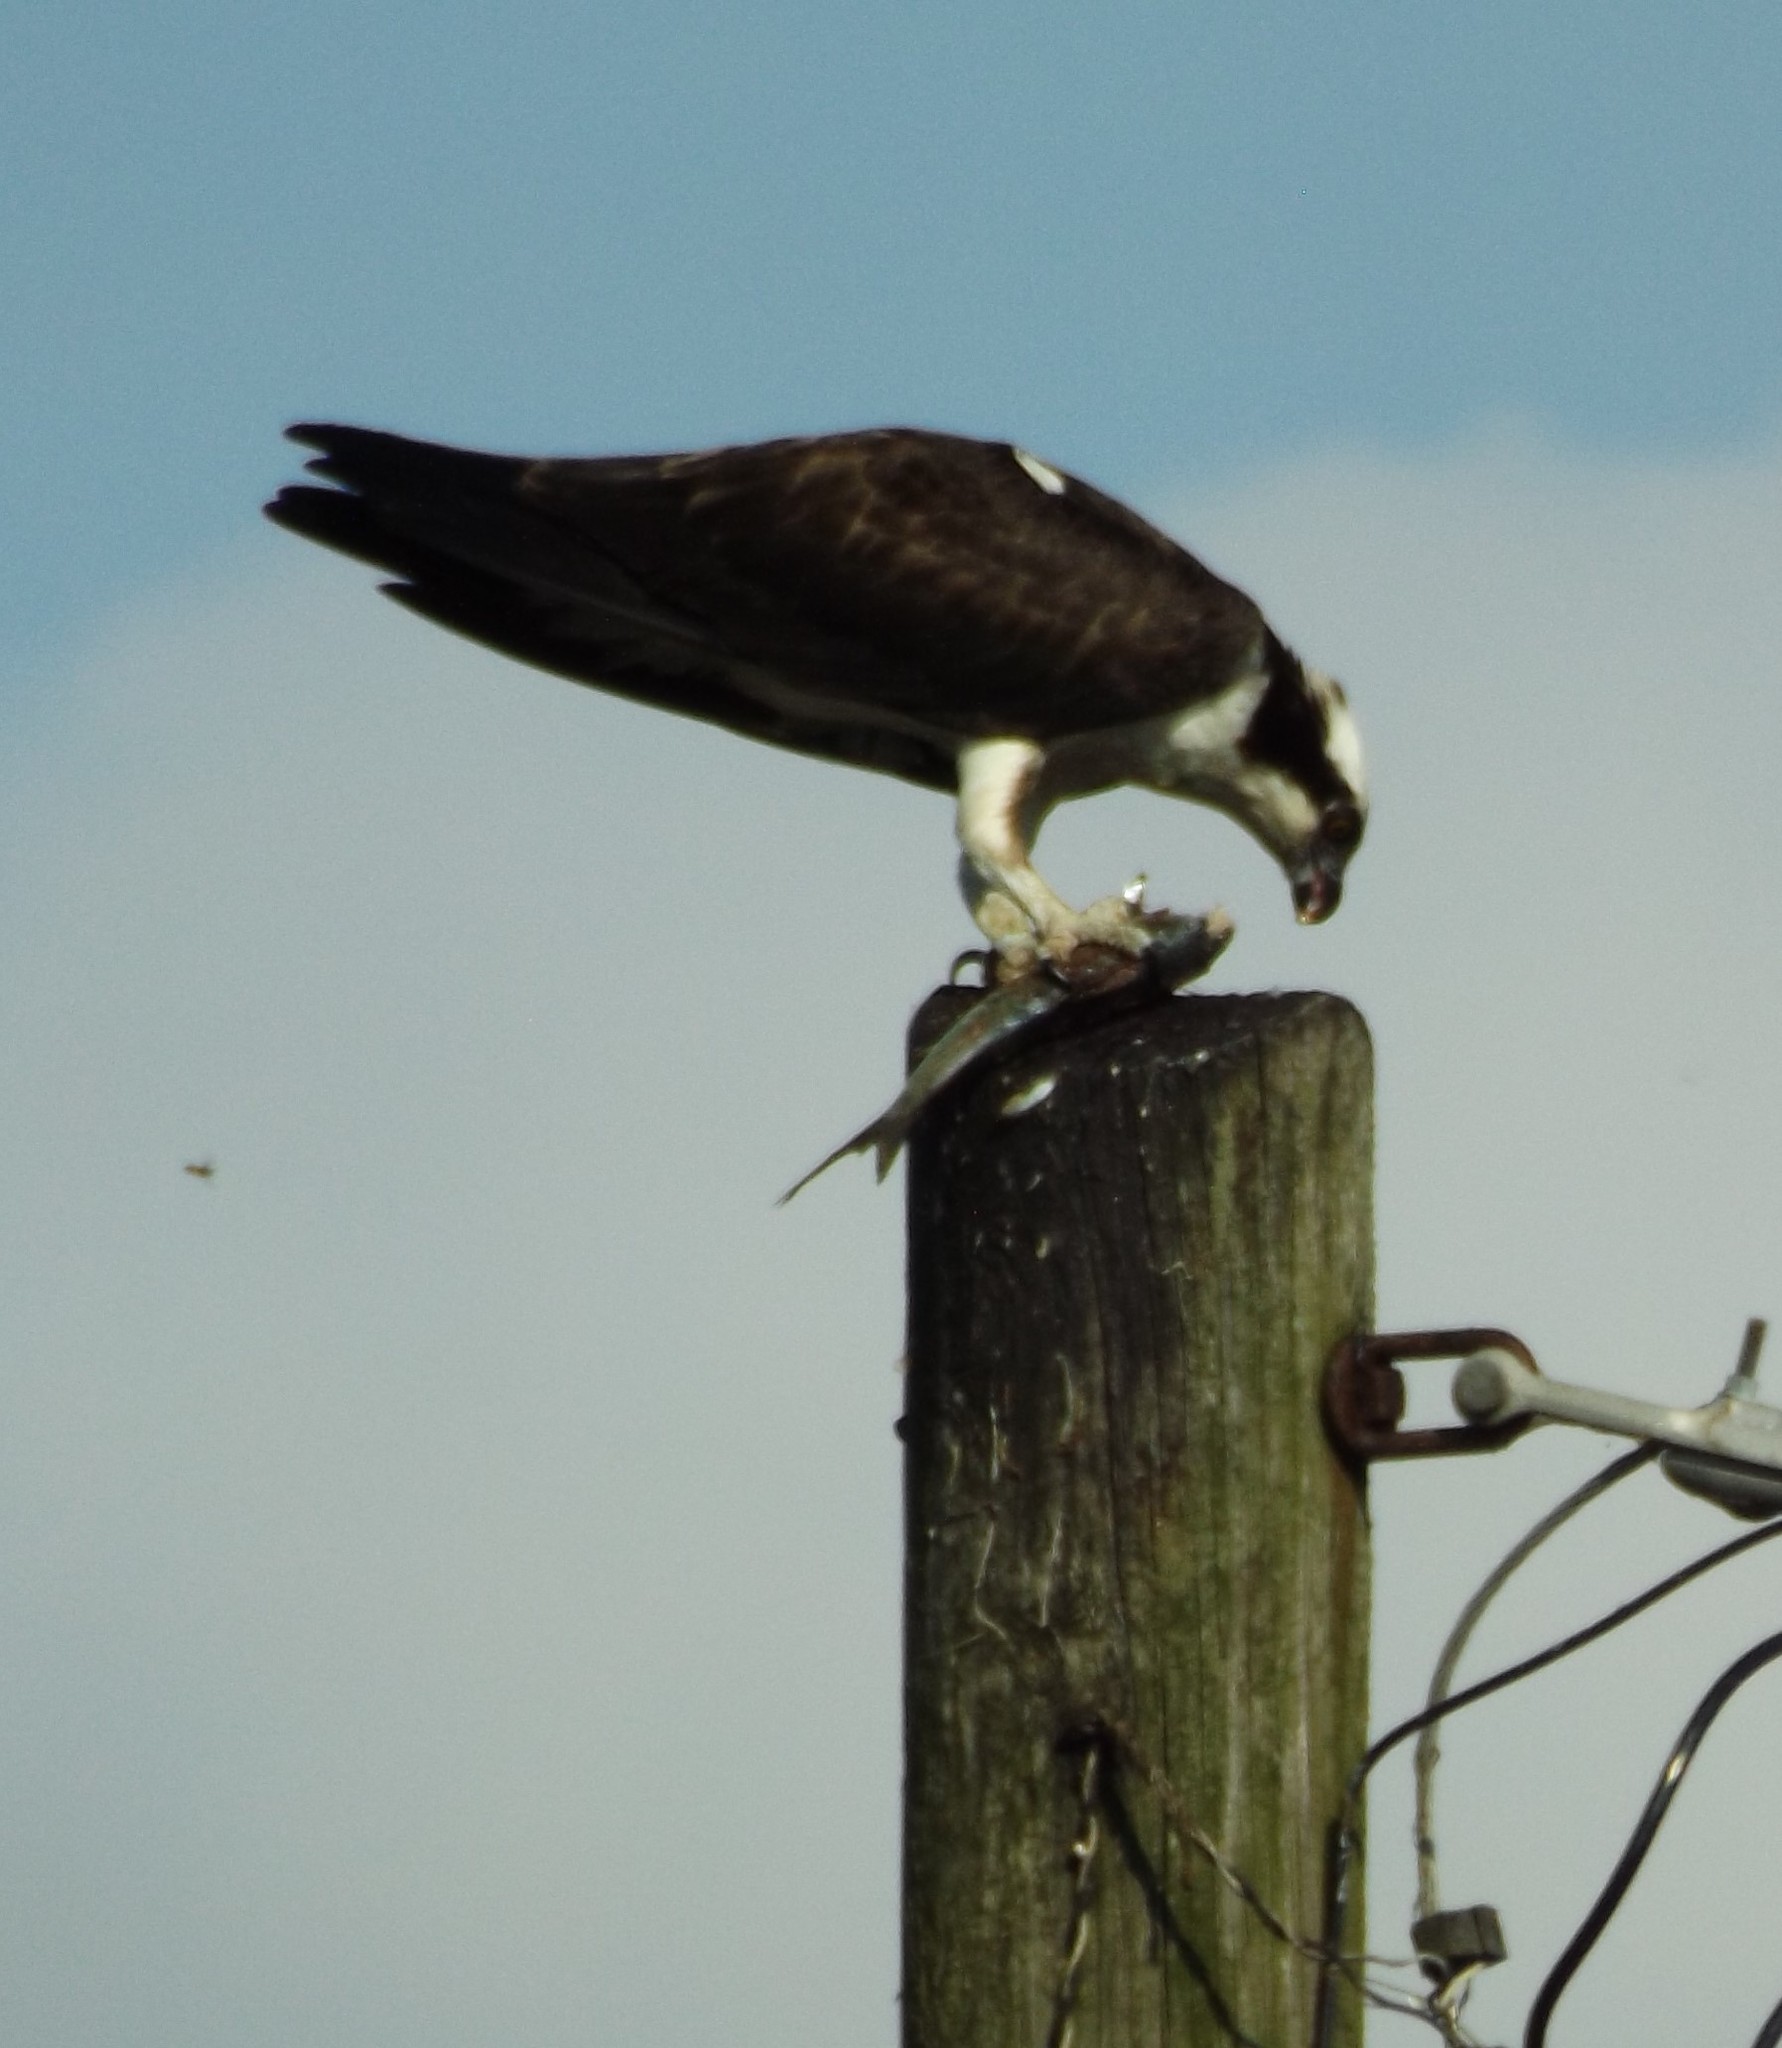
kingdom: Animalia
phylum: Chordata
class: Aves
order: Accipitriformes
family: Pandionidae
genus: Pandion
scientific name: Pandion haliaetus
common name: Osprey
